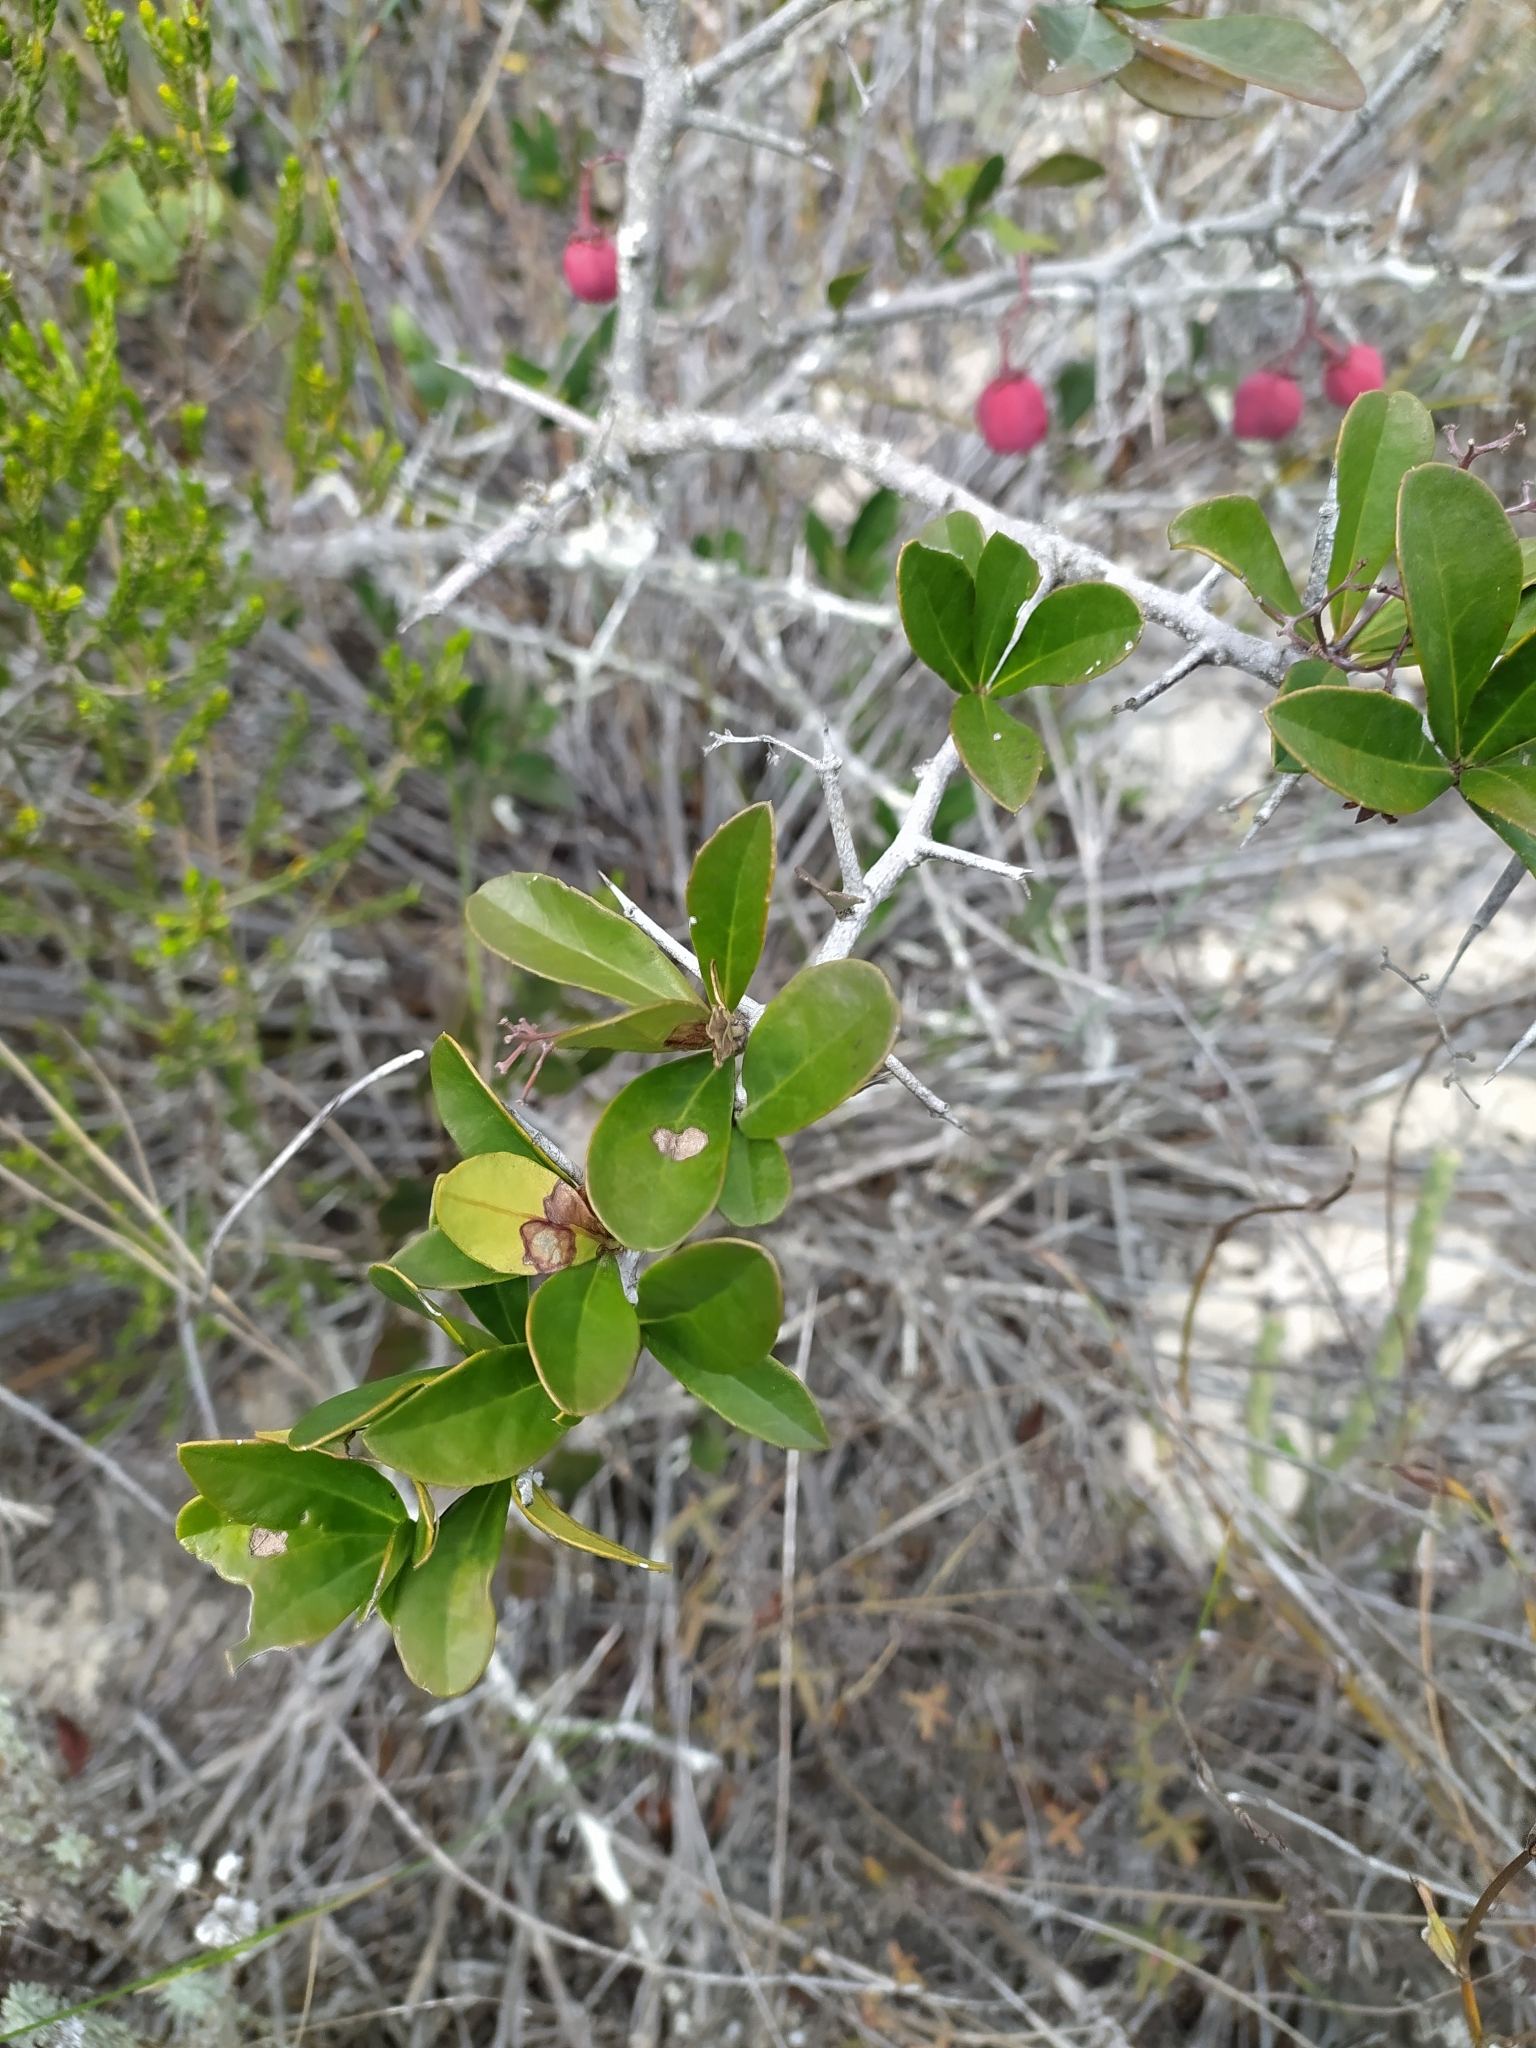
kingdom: Plantae
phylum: Tracheophyta
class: Magnoliopsida
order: Celastrales
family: Celastraceae
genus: Putterlickia
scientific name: Putterlickia pyracantha
